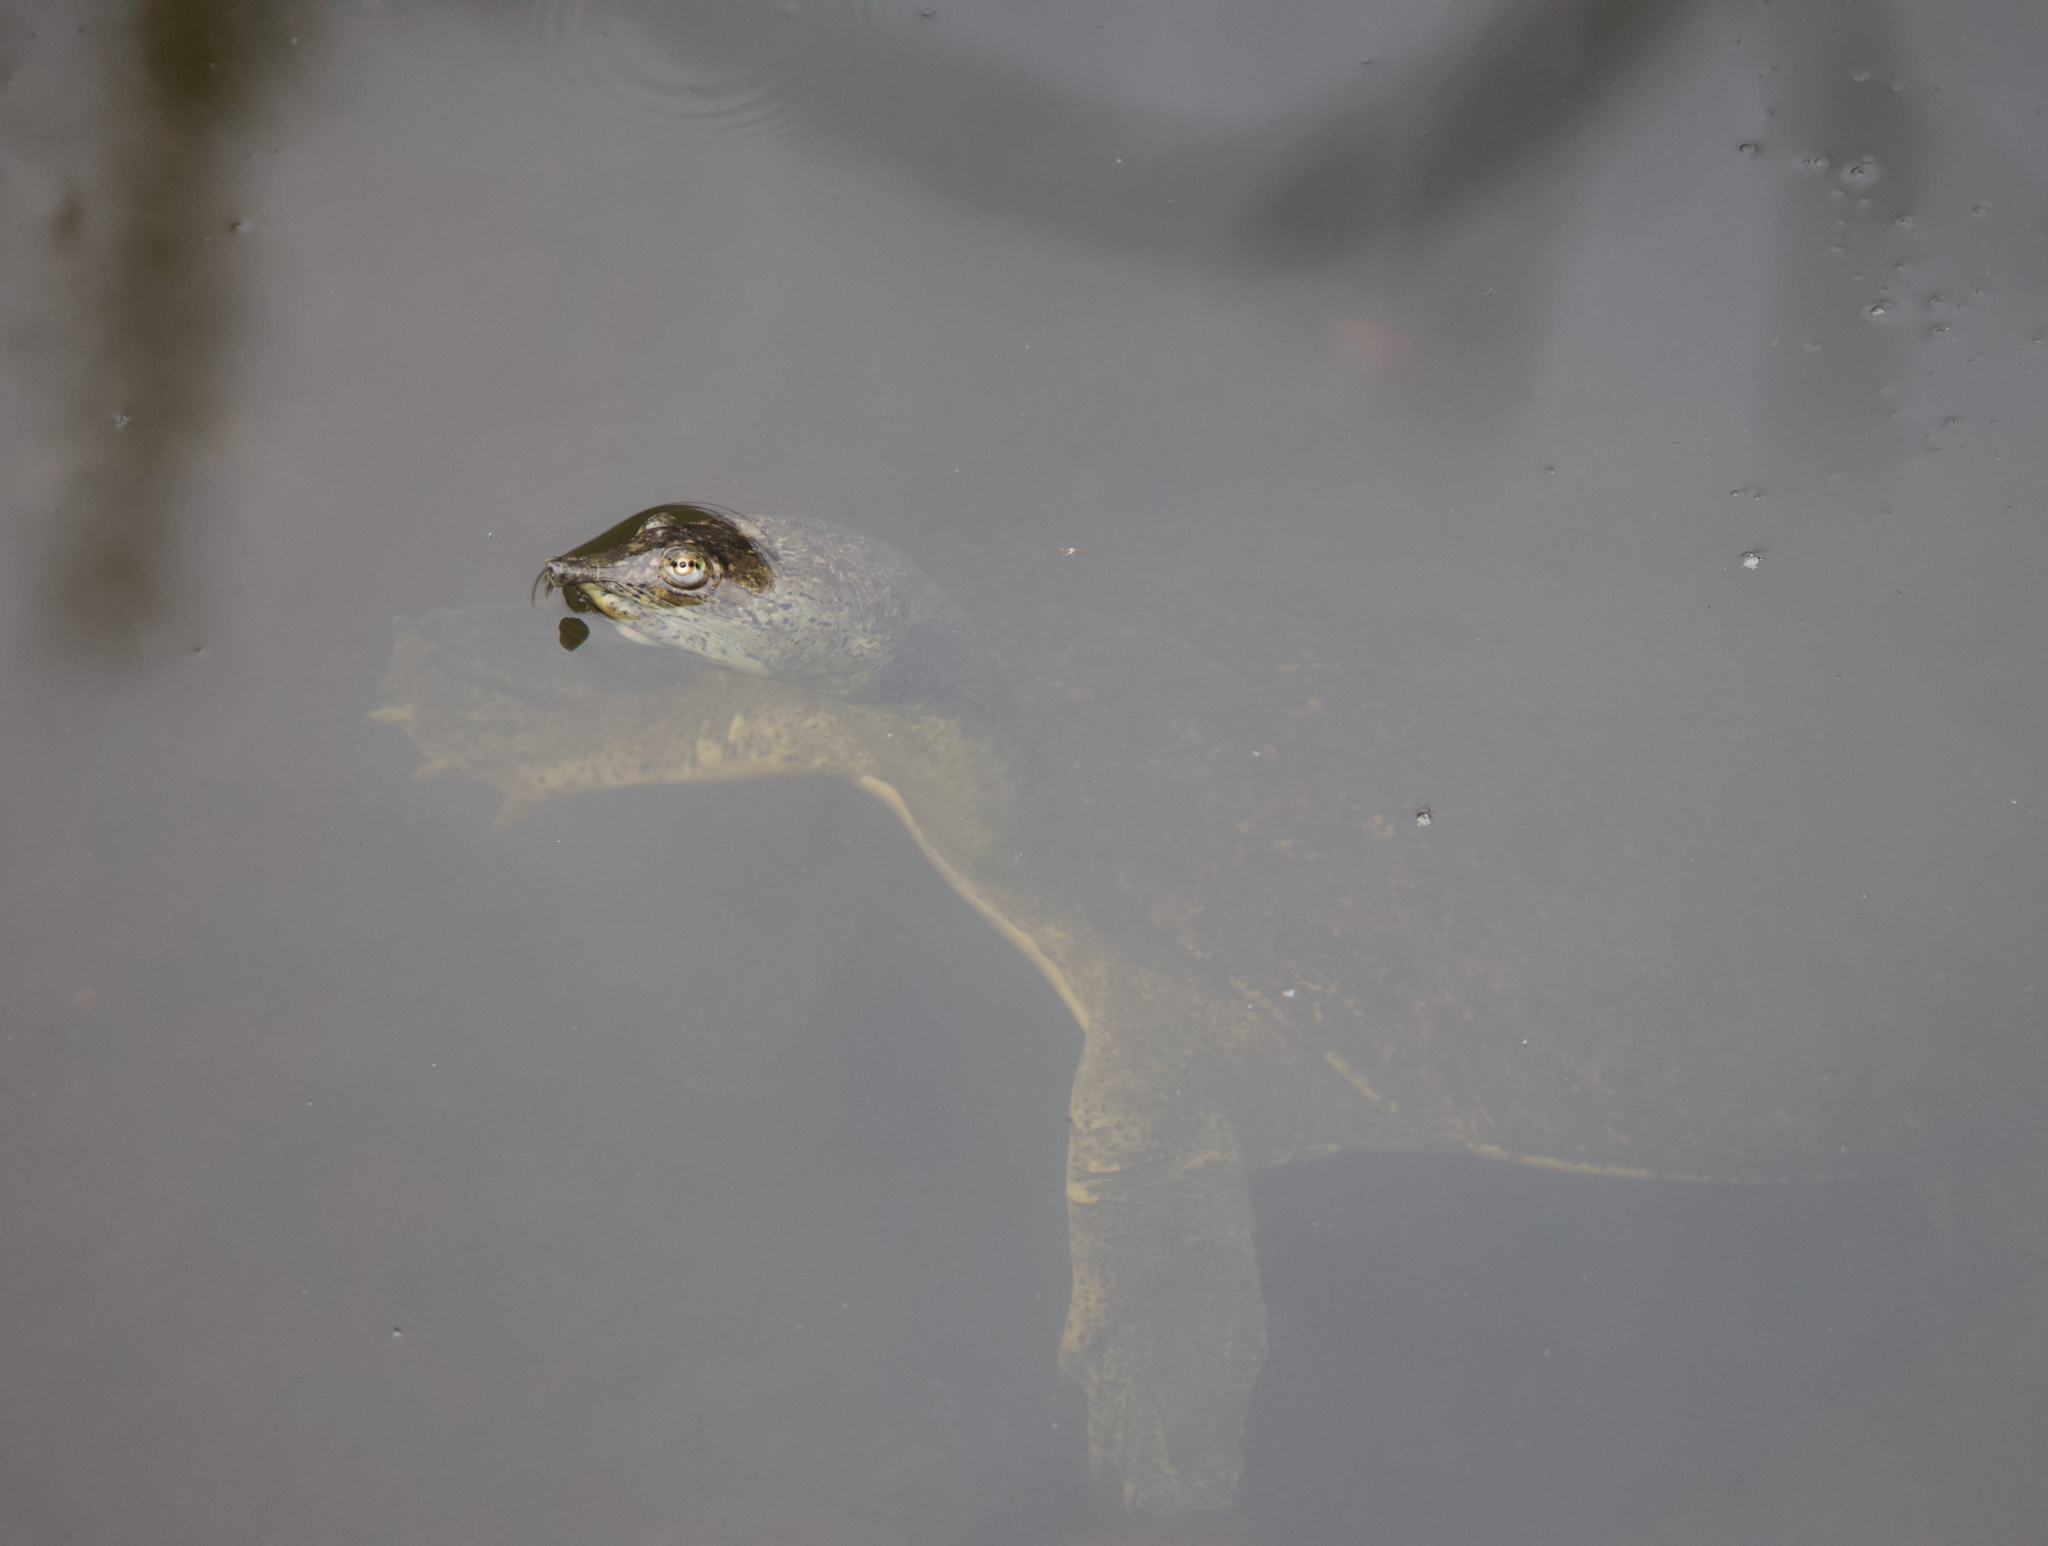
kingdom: Animalia
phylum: Chordata
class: Testudines
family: Trionychidae
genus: Apalone
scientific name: Apalone spinifera
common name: Spiny softshell turtle
